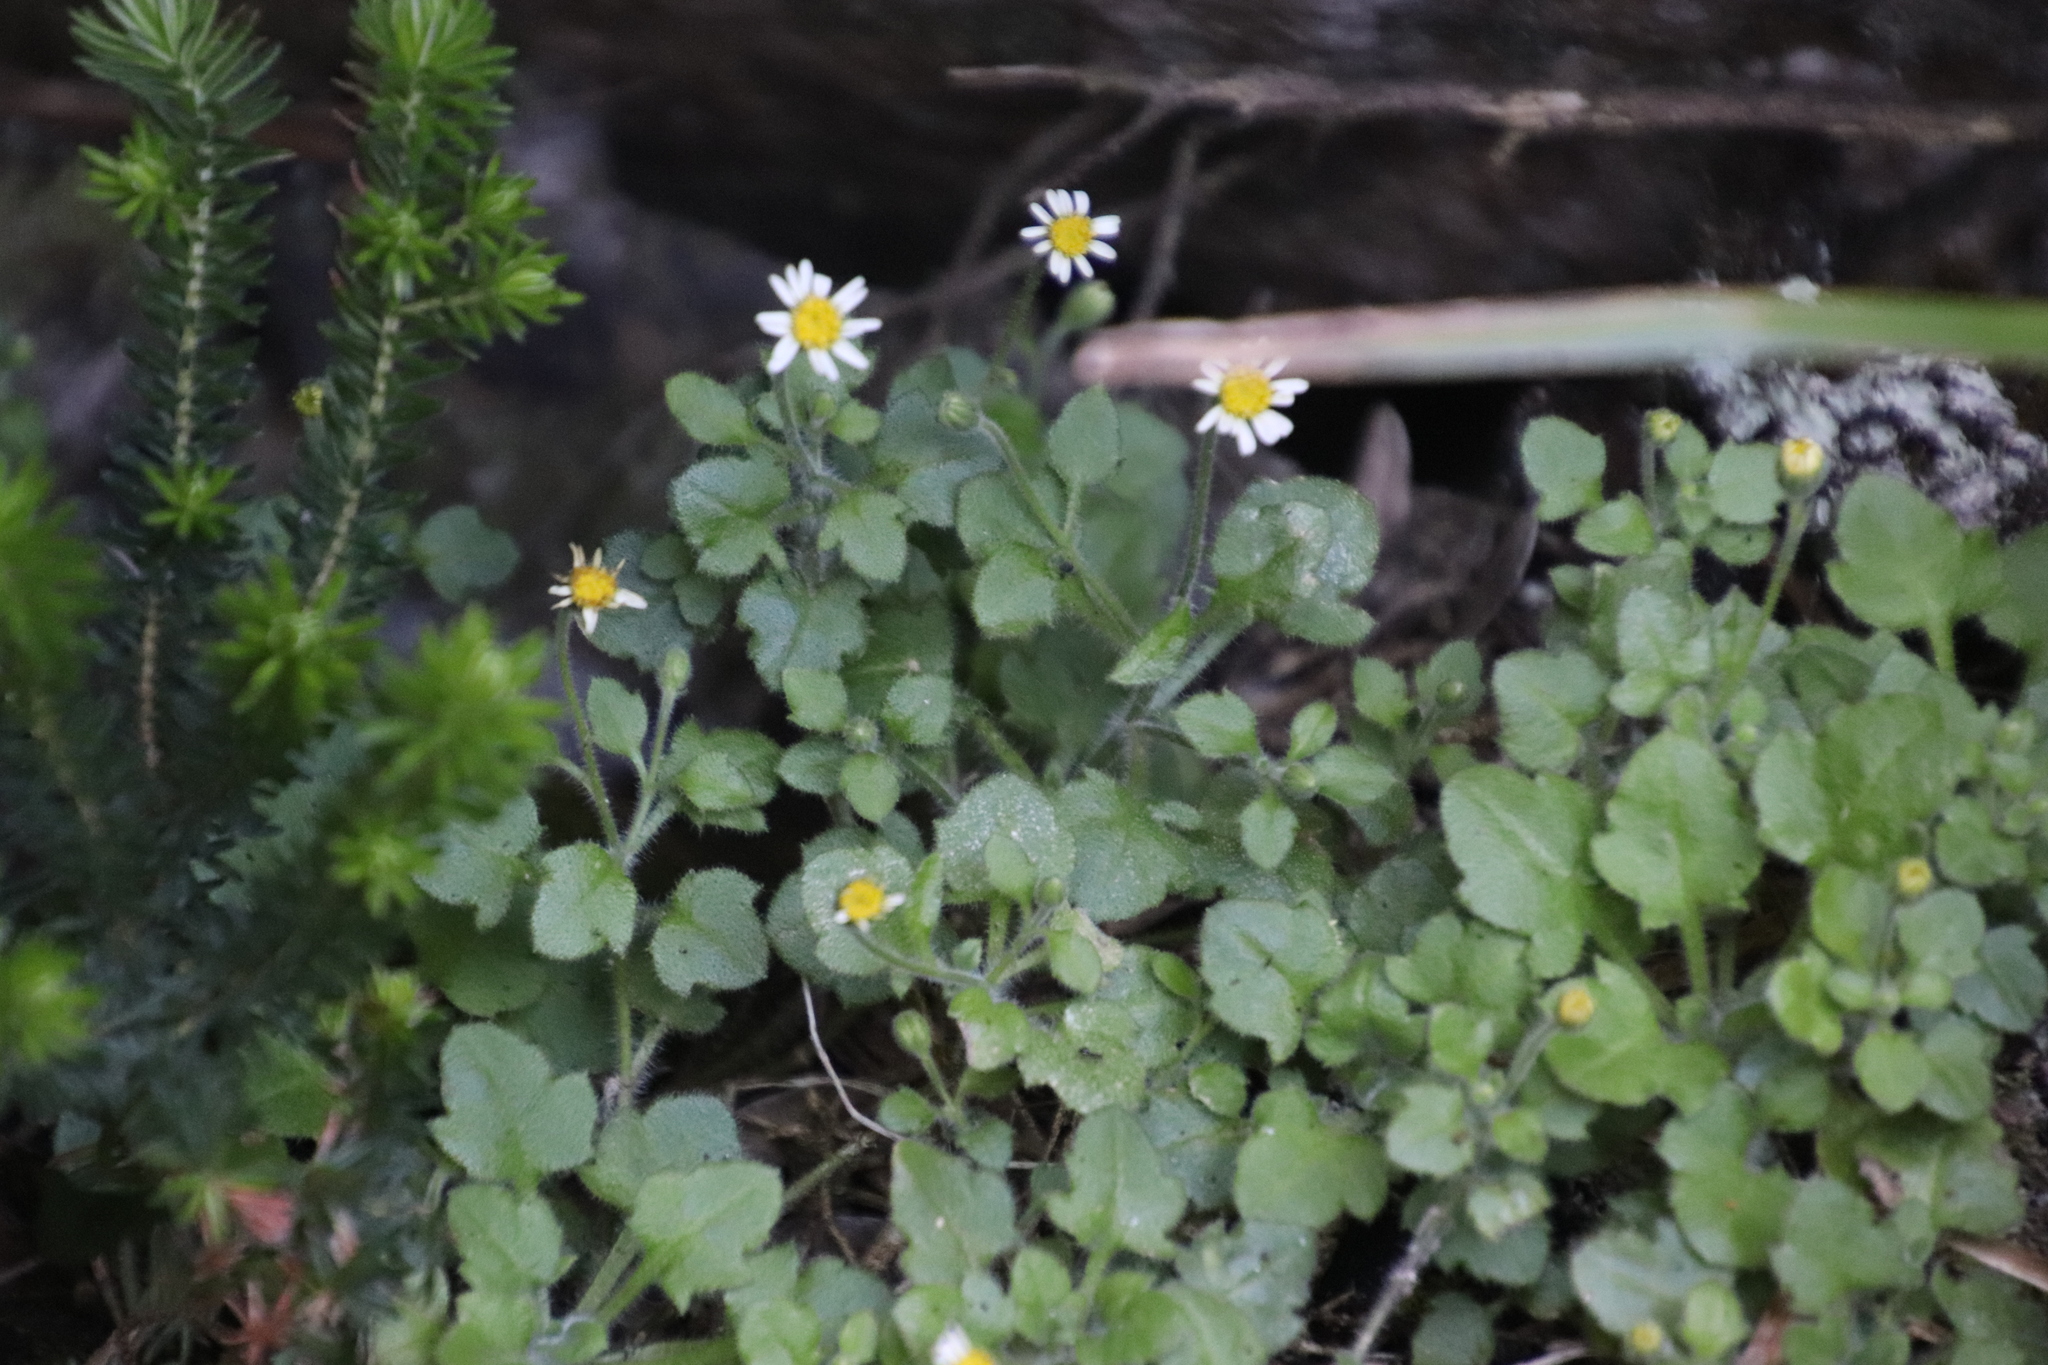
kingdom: Plantae
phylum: Tracheophyta
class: Magnoliopsida
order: Asterales
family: Asteraceae
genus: Felicia
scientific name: Felicia cymbalariae
